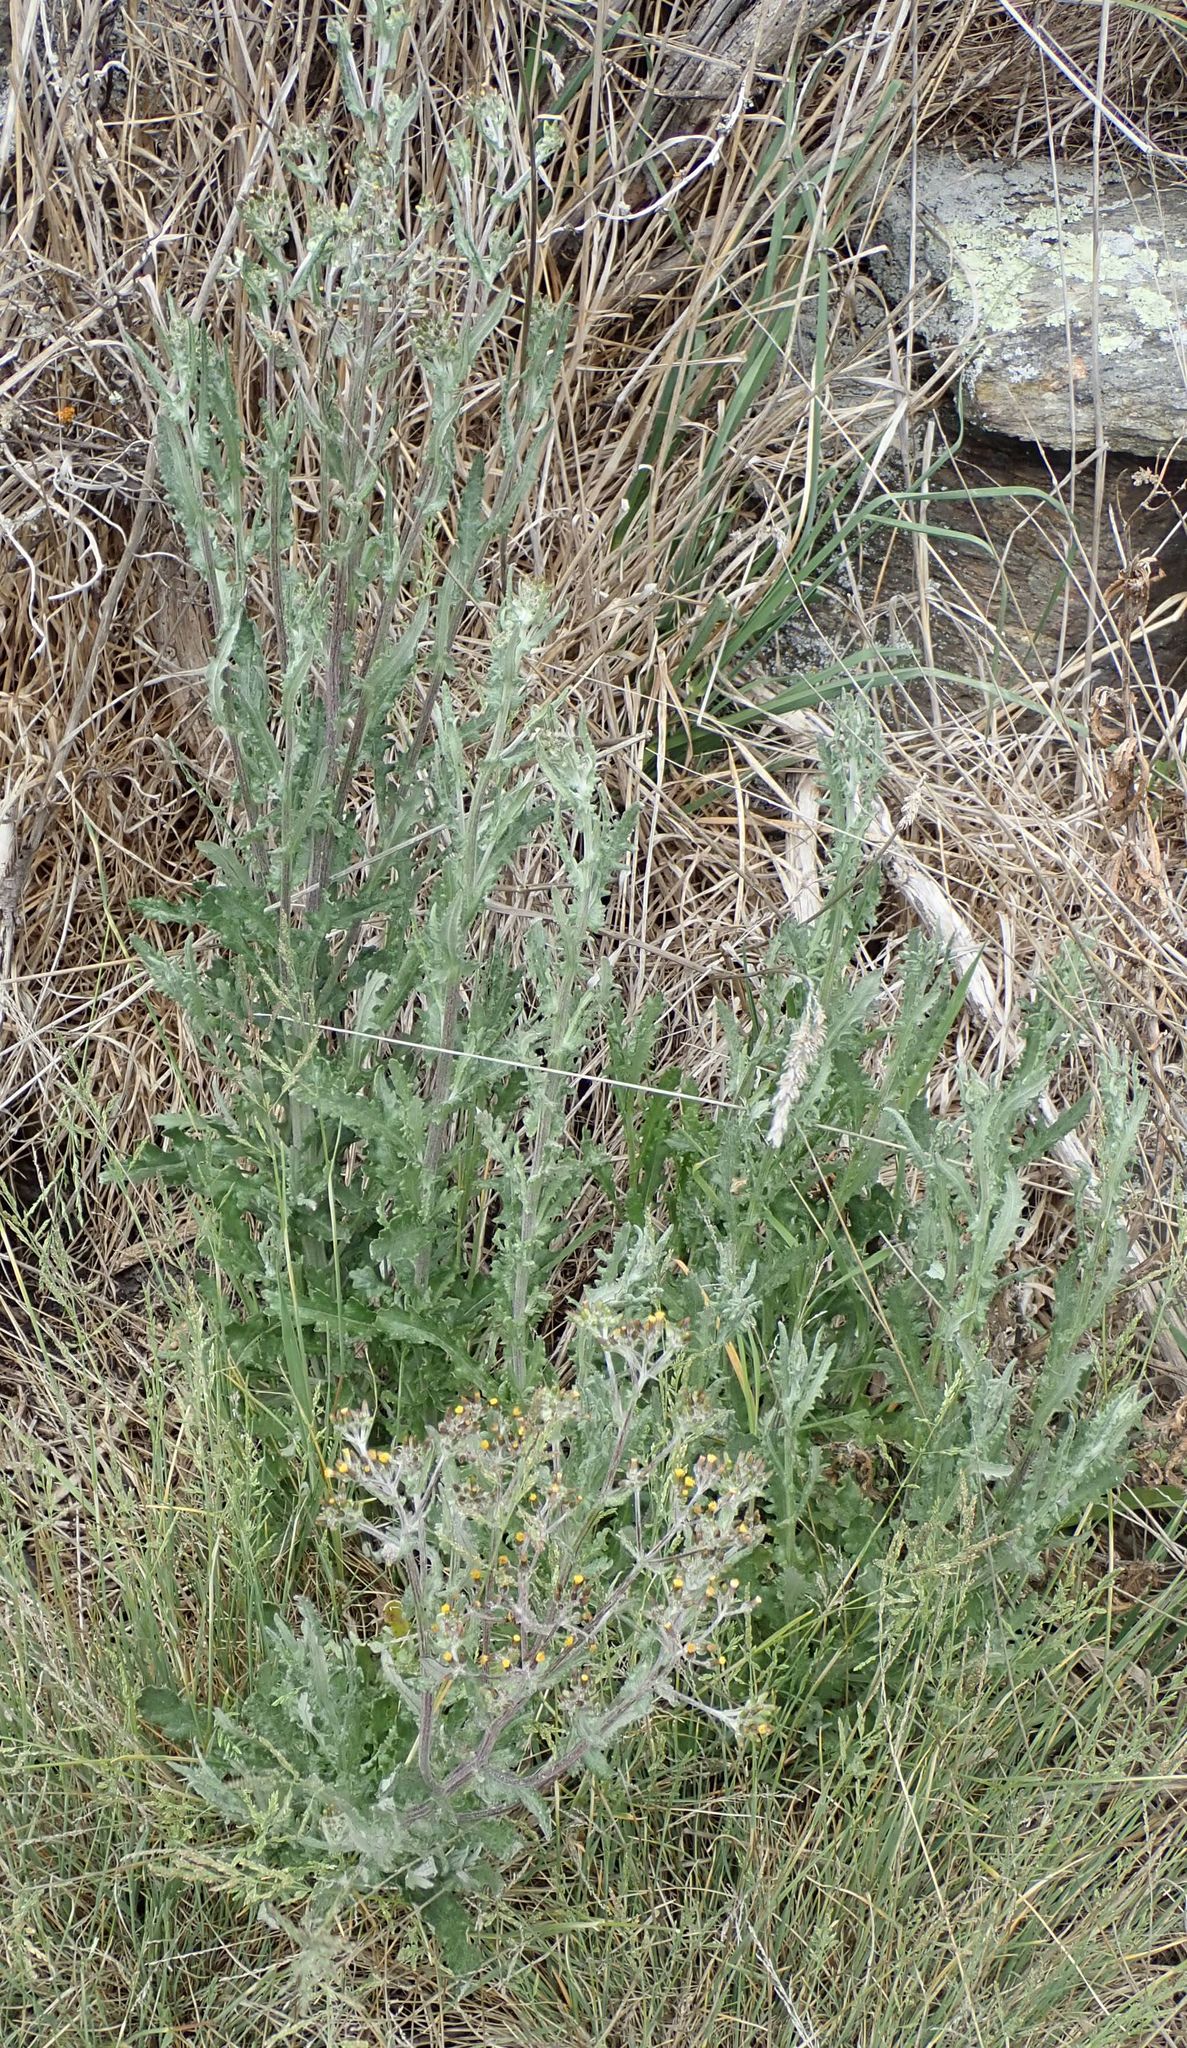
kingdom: Plantae
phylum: Tracheophyta
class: Magnoliopsida
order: Asterales
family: Asteraceae
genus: Senecio
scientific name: Senecio glomeratus
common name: Cutleaf burnweed
